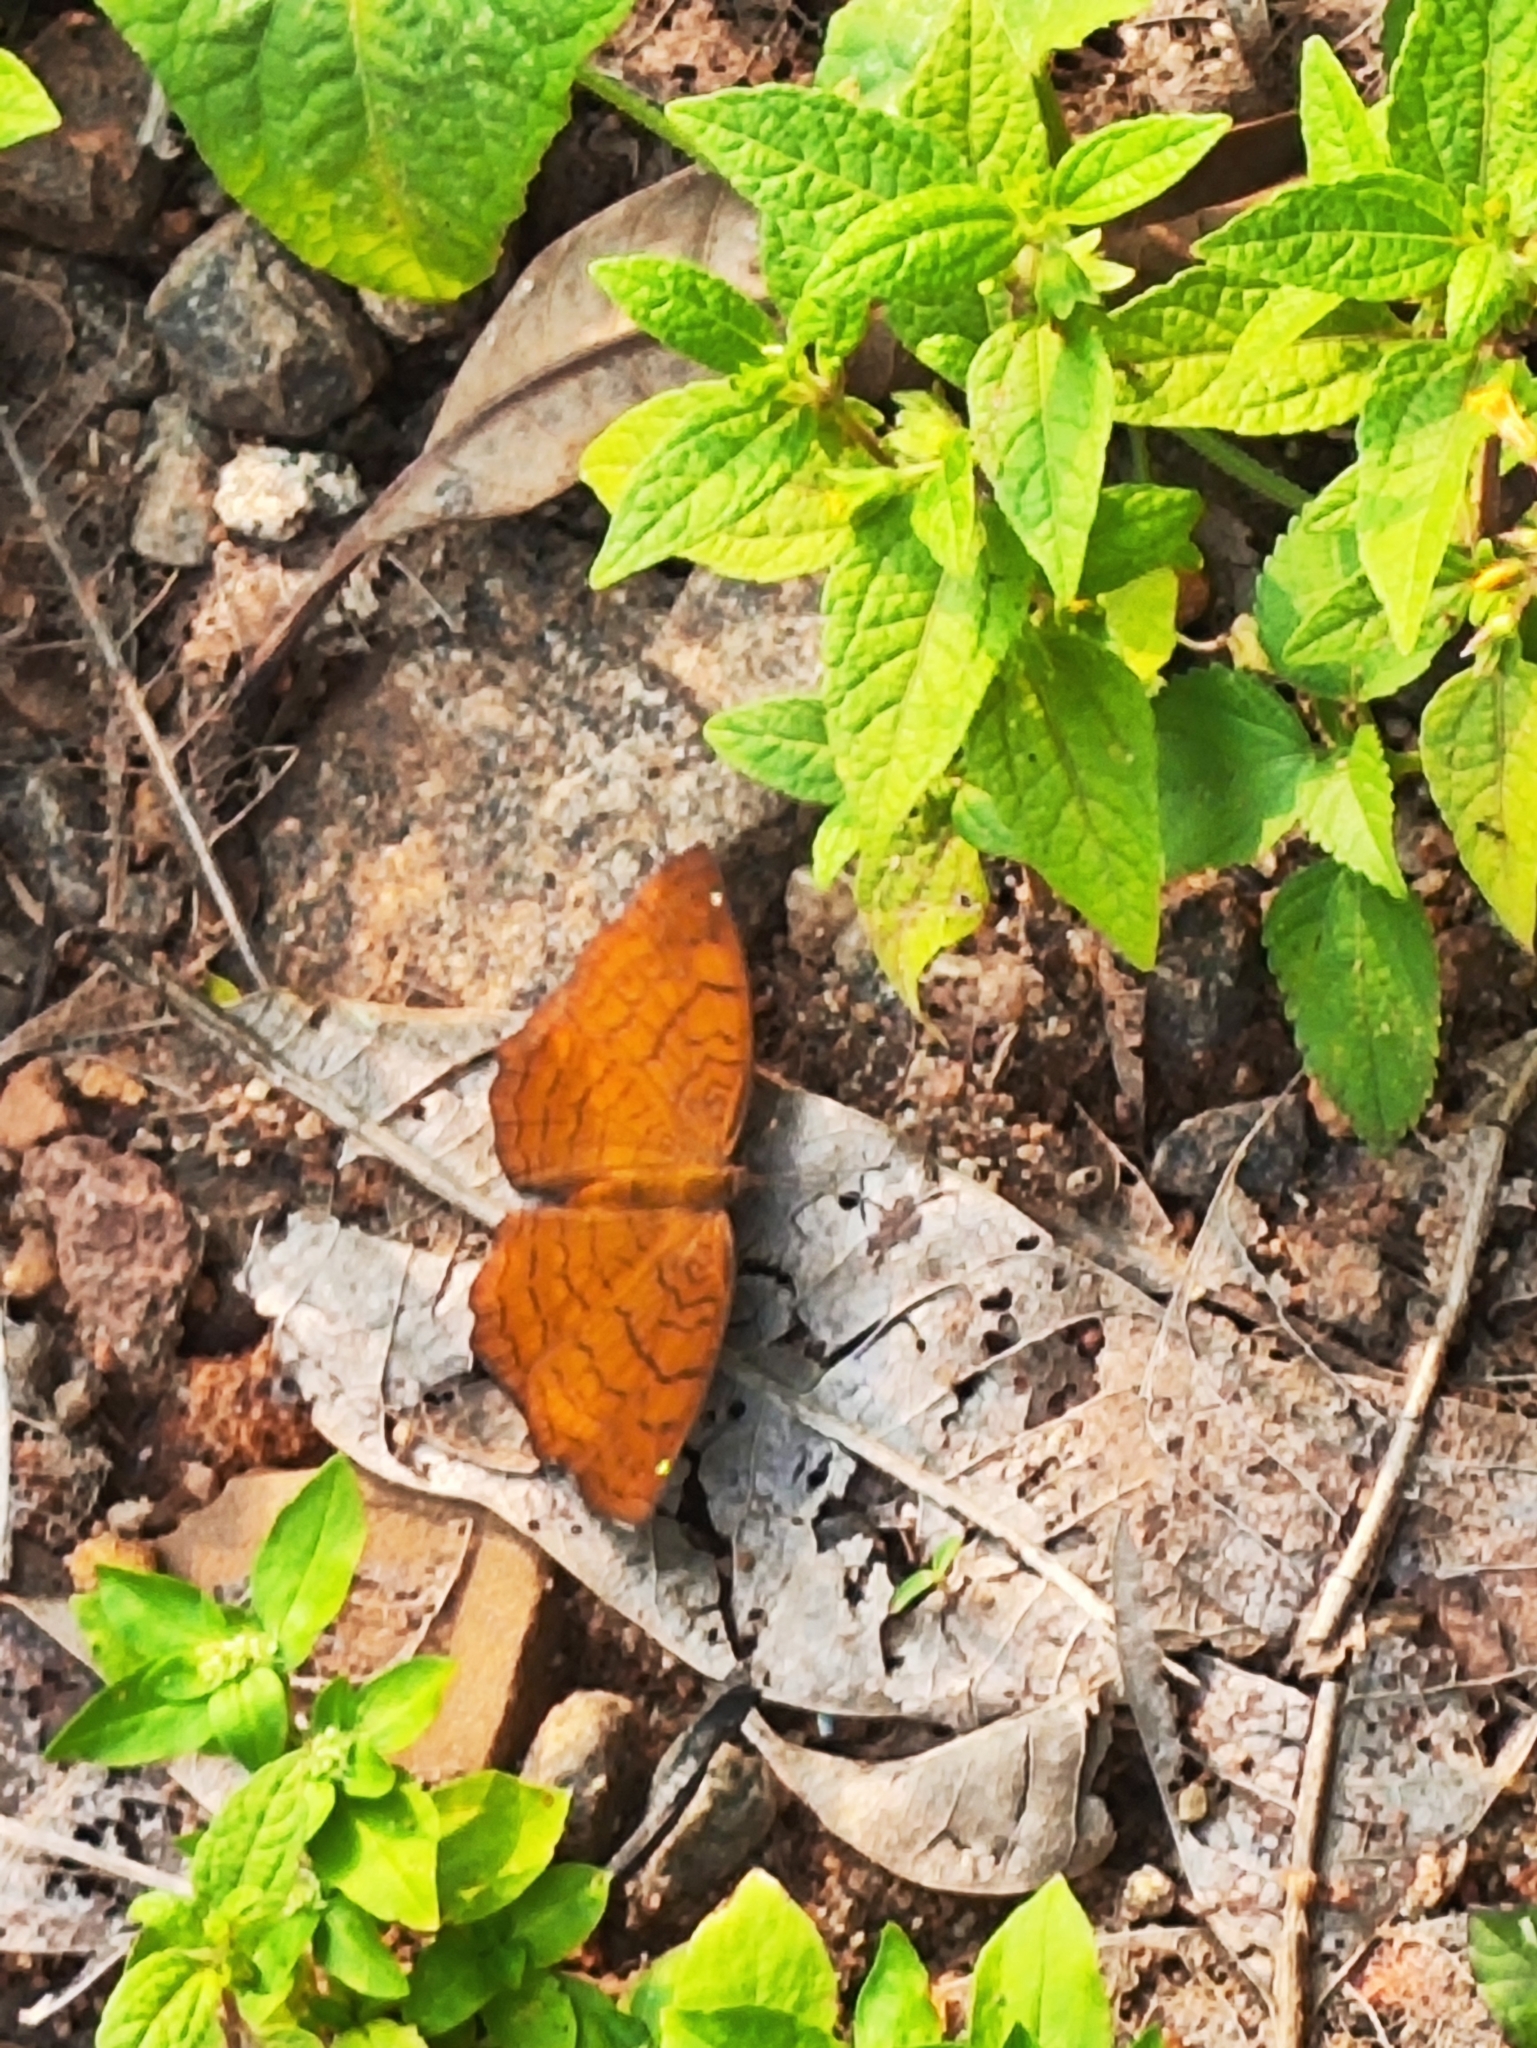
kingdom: Animalia
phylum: Arthropoda
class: Insecta
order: Lepidoptera
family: Nymphalidae
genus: Ariadne
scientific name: Ariadne ariadne
